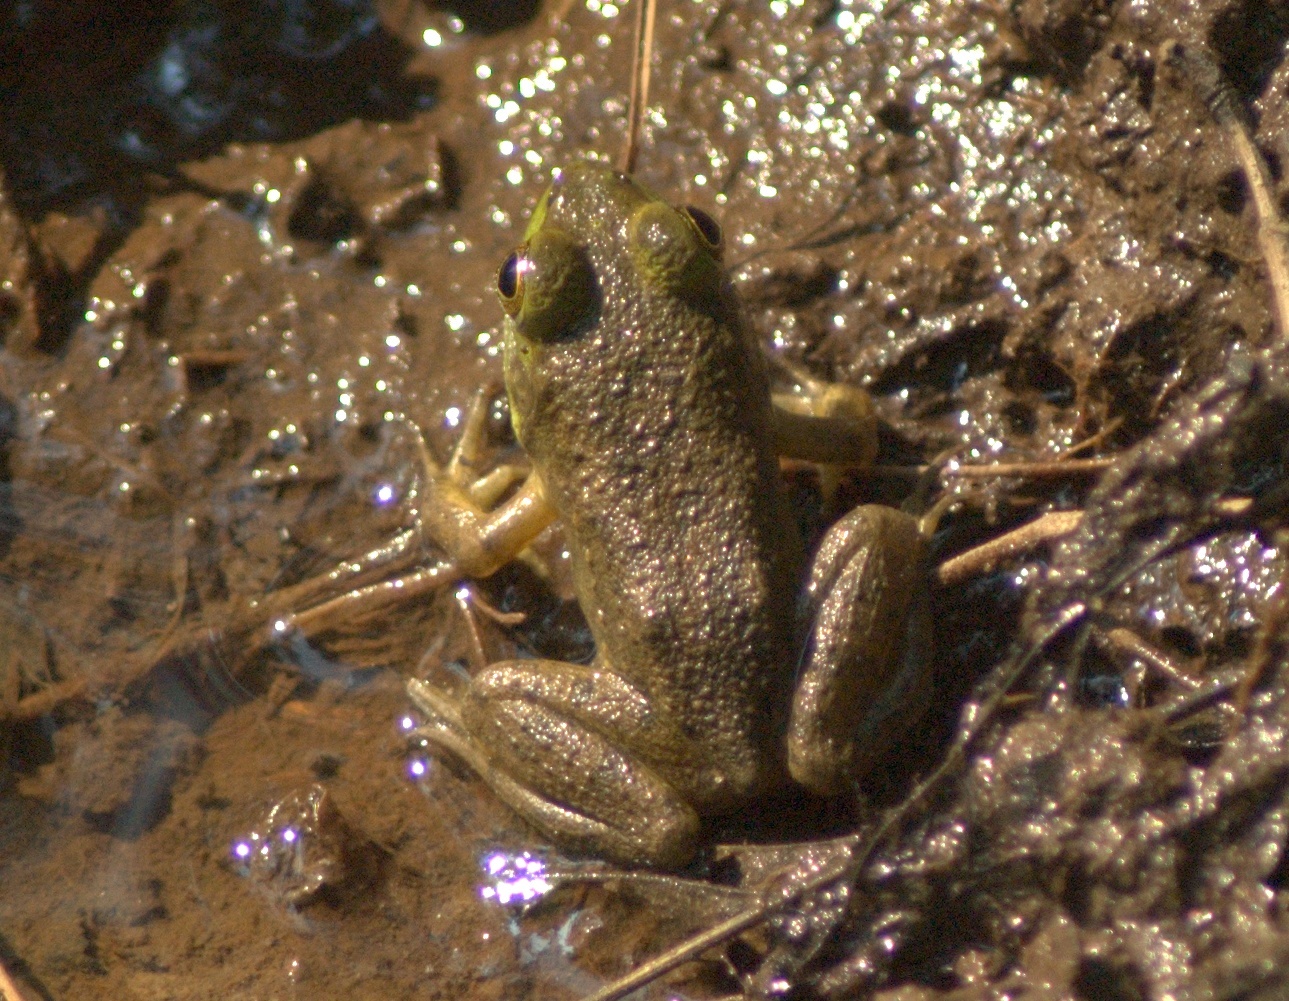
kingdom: Animalia
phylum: Chordata
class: Amphibia
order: Anura
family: Ranidae
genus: Lithobates
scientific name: Lithobates catesbeianus
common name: American bullfrog
